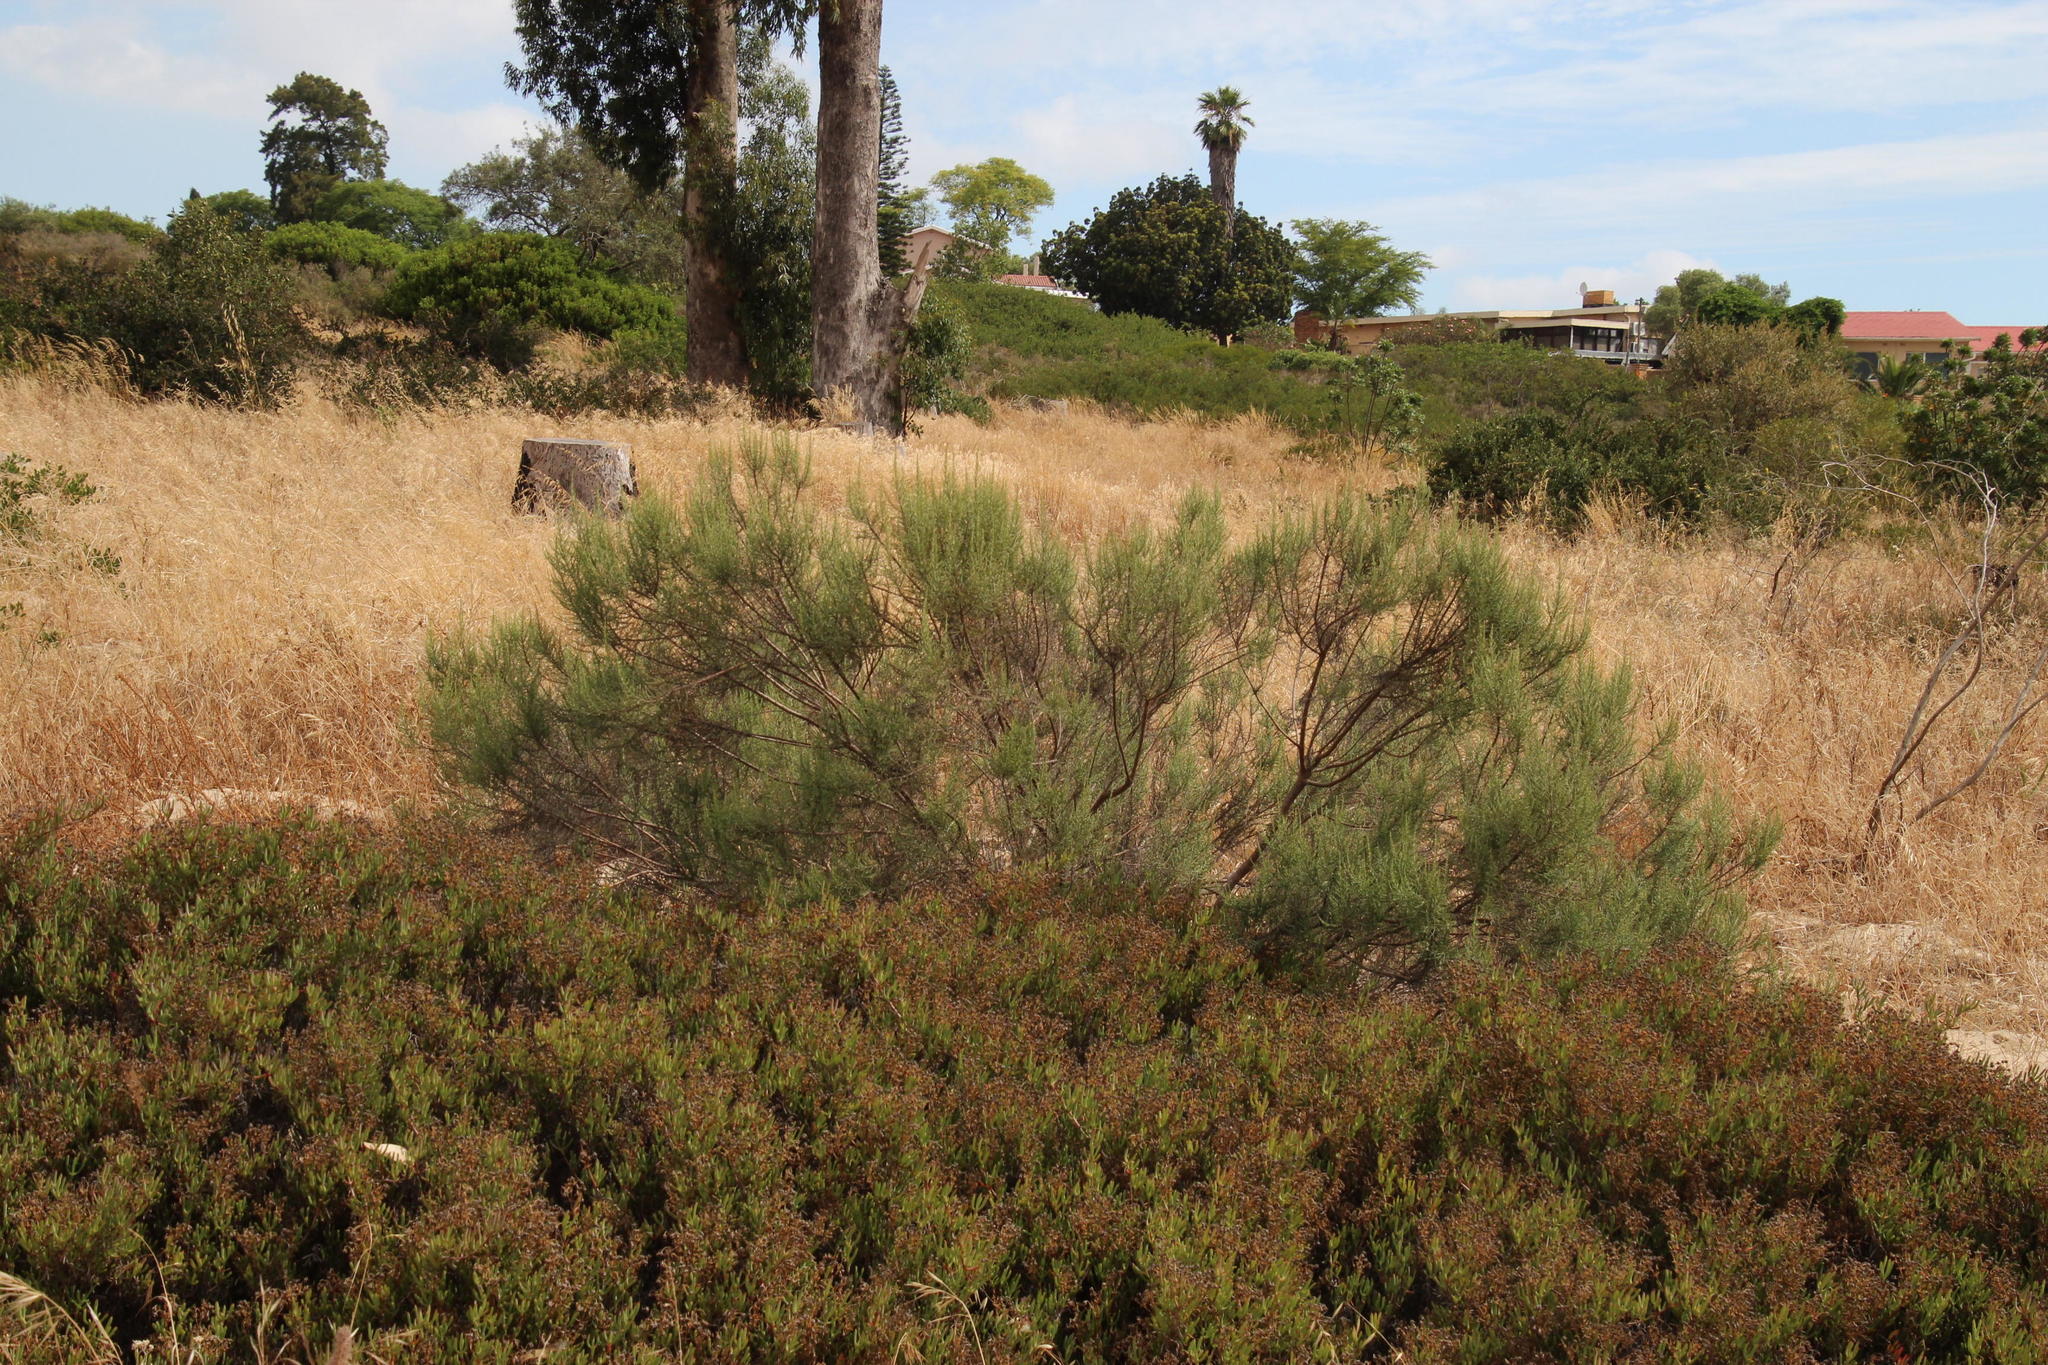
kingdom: Plantae
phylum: Tracheophyta
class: Magnoliopsida
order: Asterales
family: Asteraceae
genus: Dicerothamnus
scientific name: Dicerothamnus rhinocerotis
